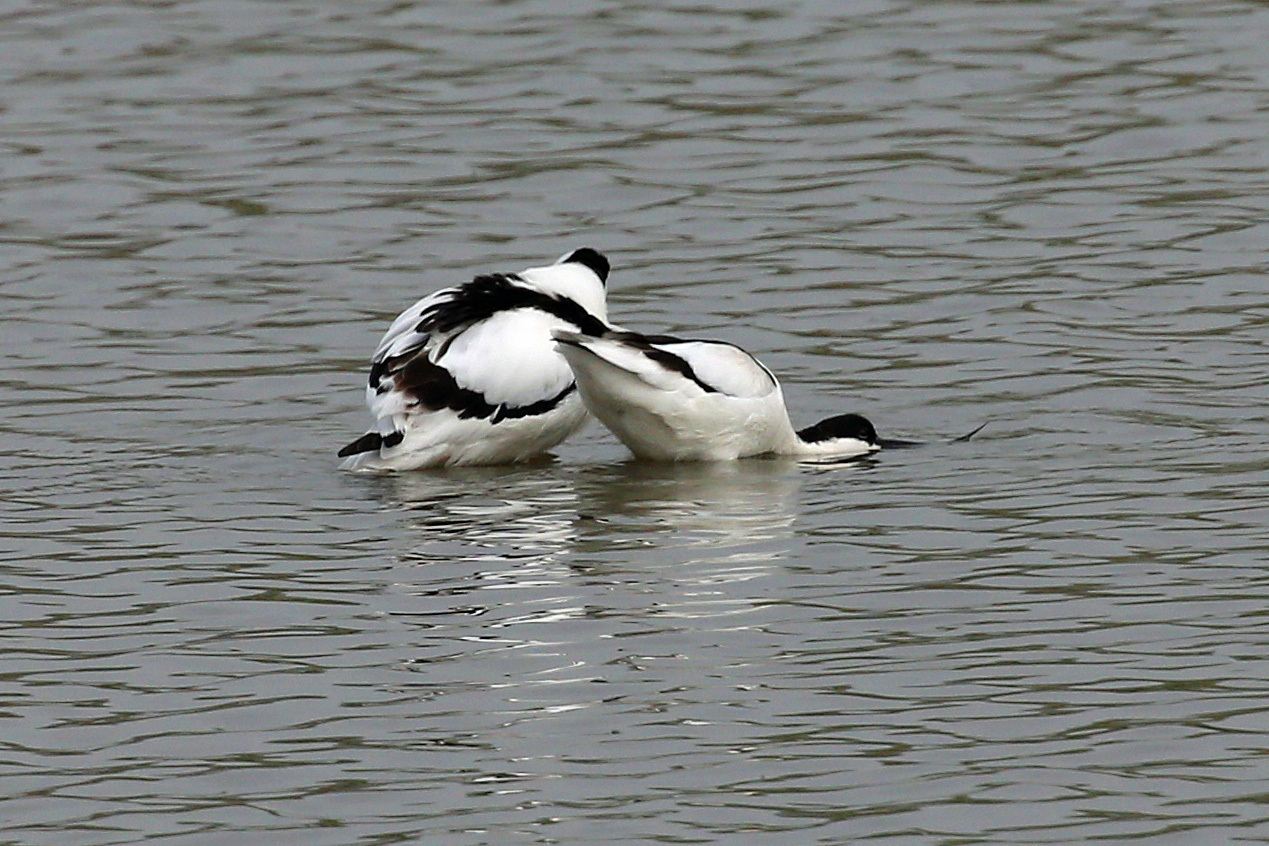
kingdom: Animalia
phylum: Chordata
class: Aves
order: Charadriiformes
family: Recurvirostridae
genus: Recurvirostra
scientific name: Recurvirostra avosetta
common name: Pied avocet
